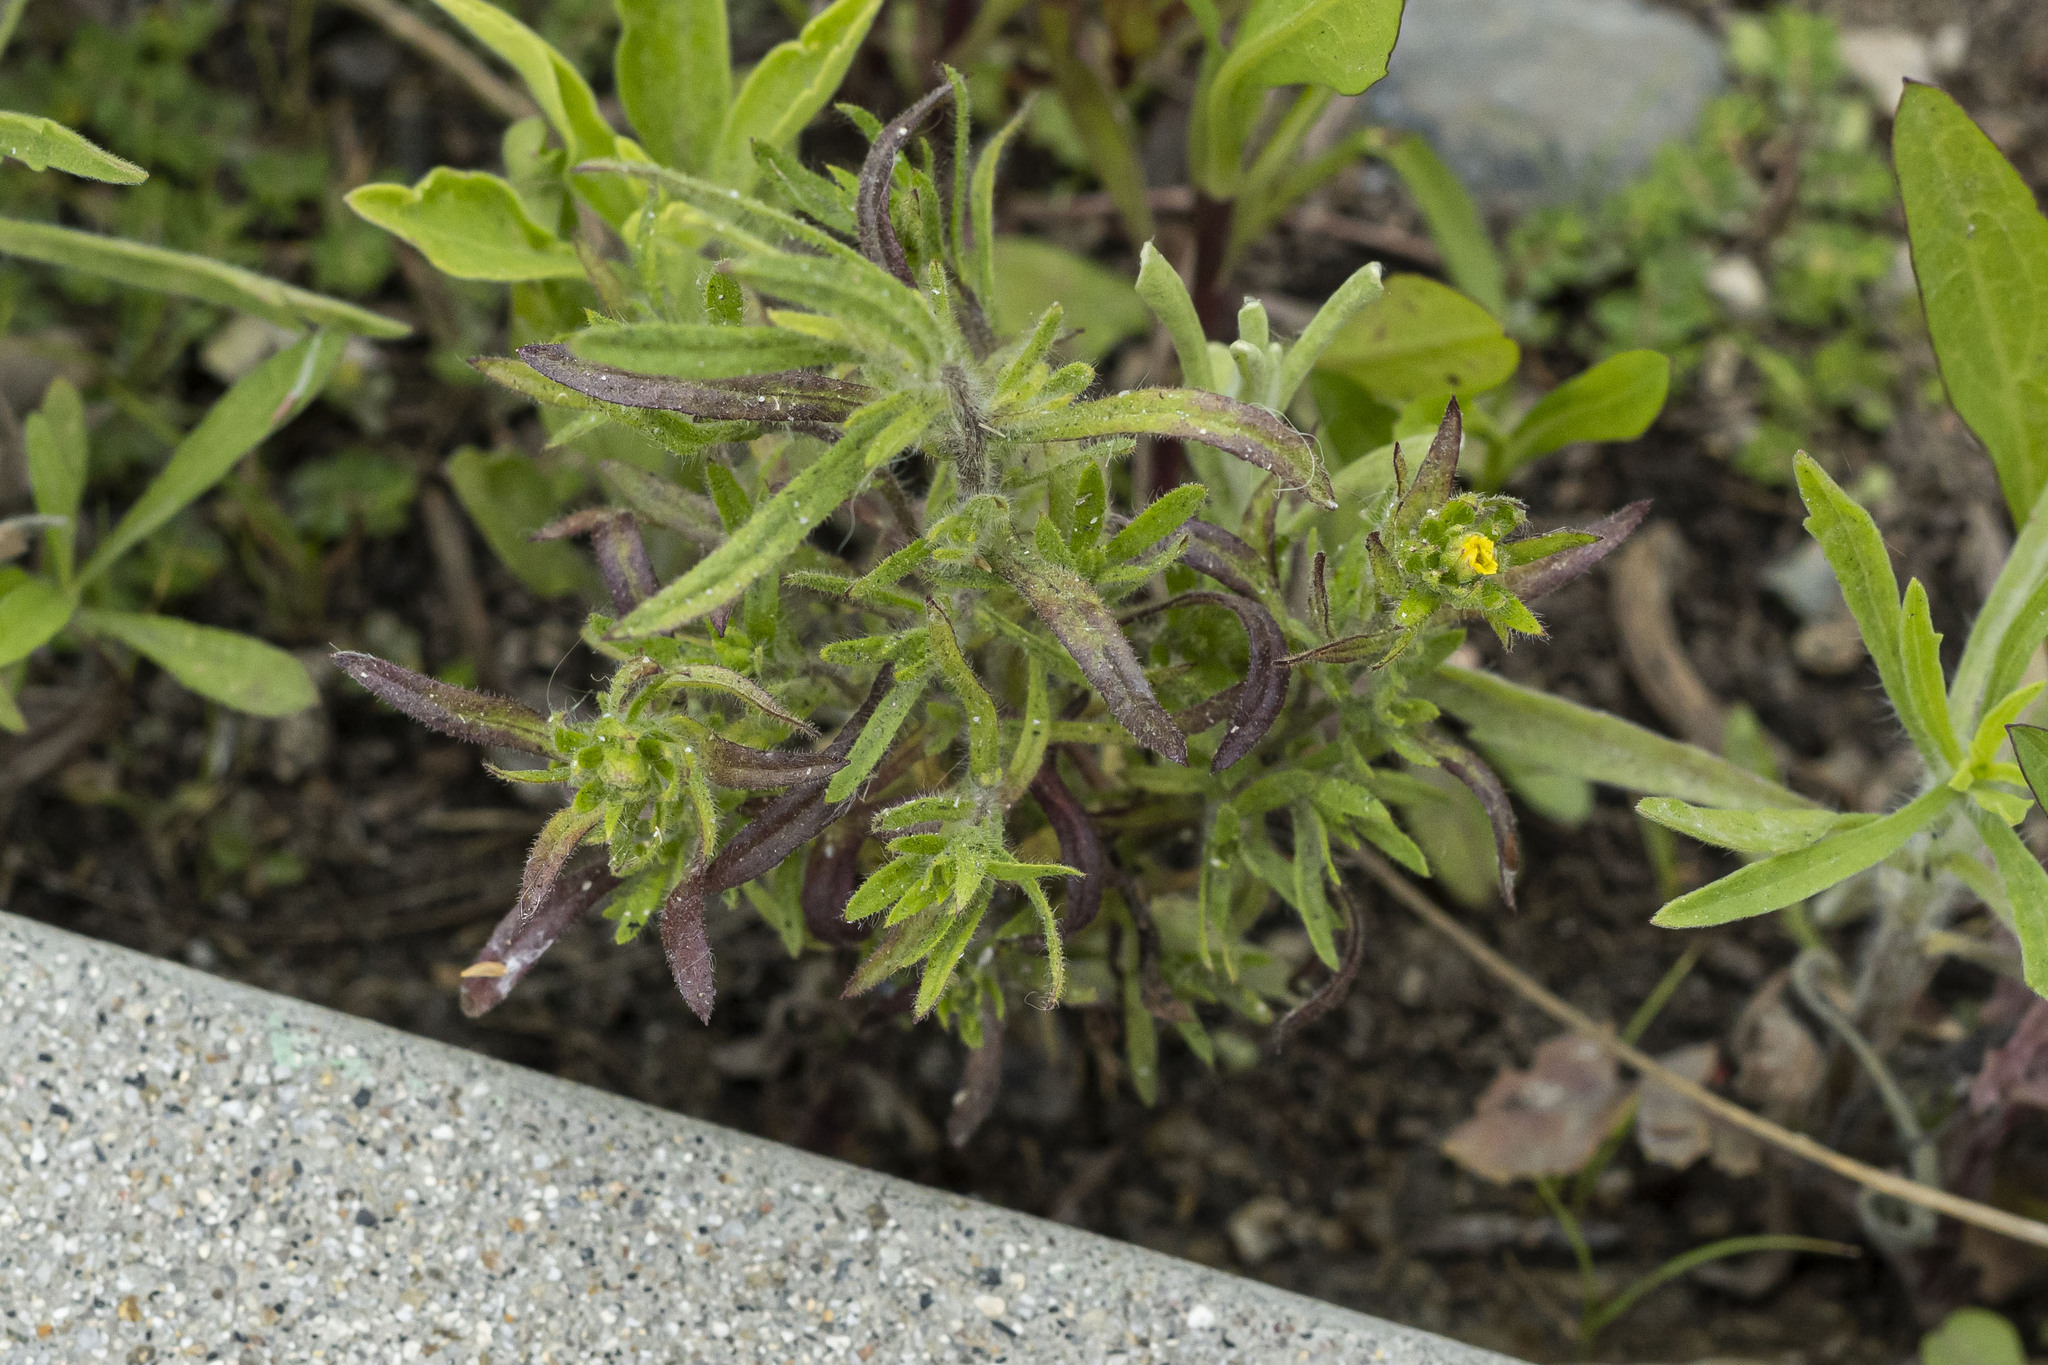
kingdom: Plantae
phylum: Tracheophyta
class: Magnoliopsida
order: Asterales
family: Asteraceae
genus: Dittrichia
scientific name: Dittrichia graveolens
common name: Stinking fleabane
